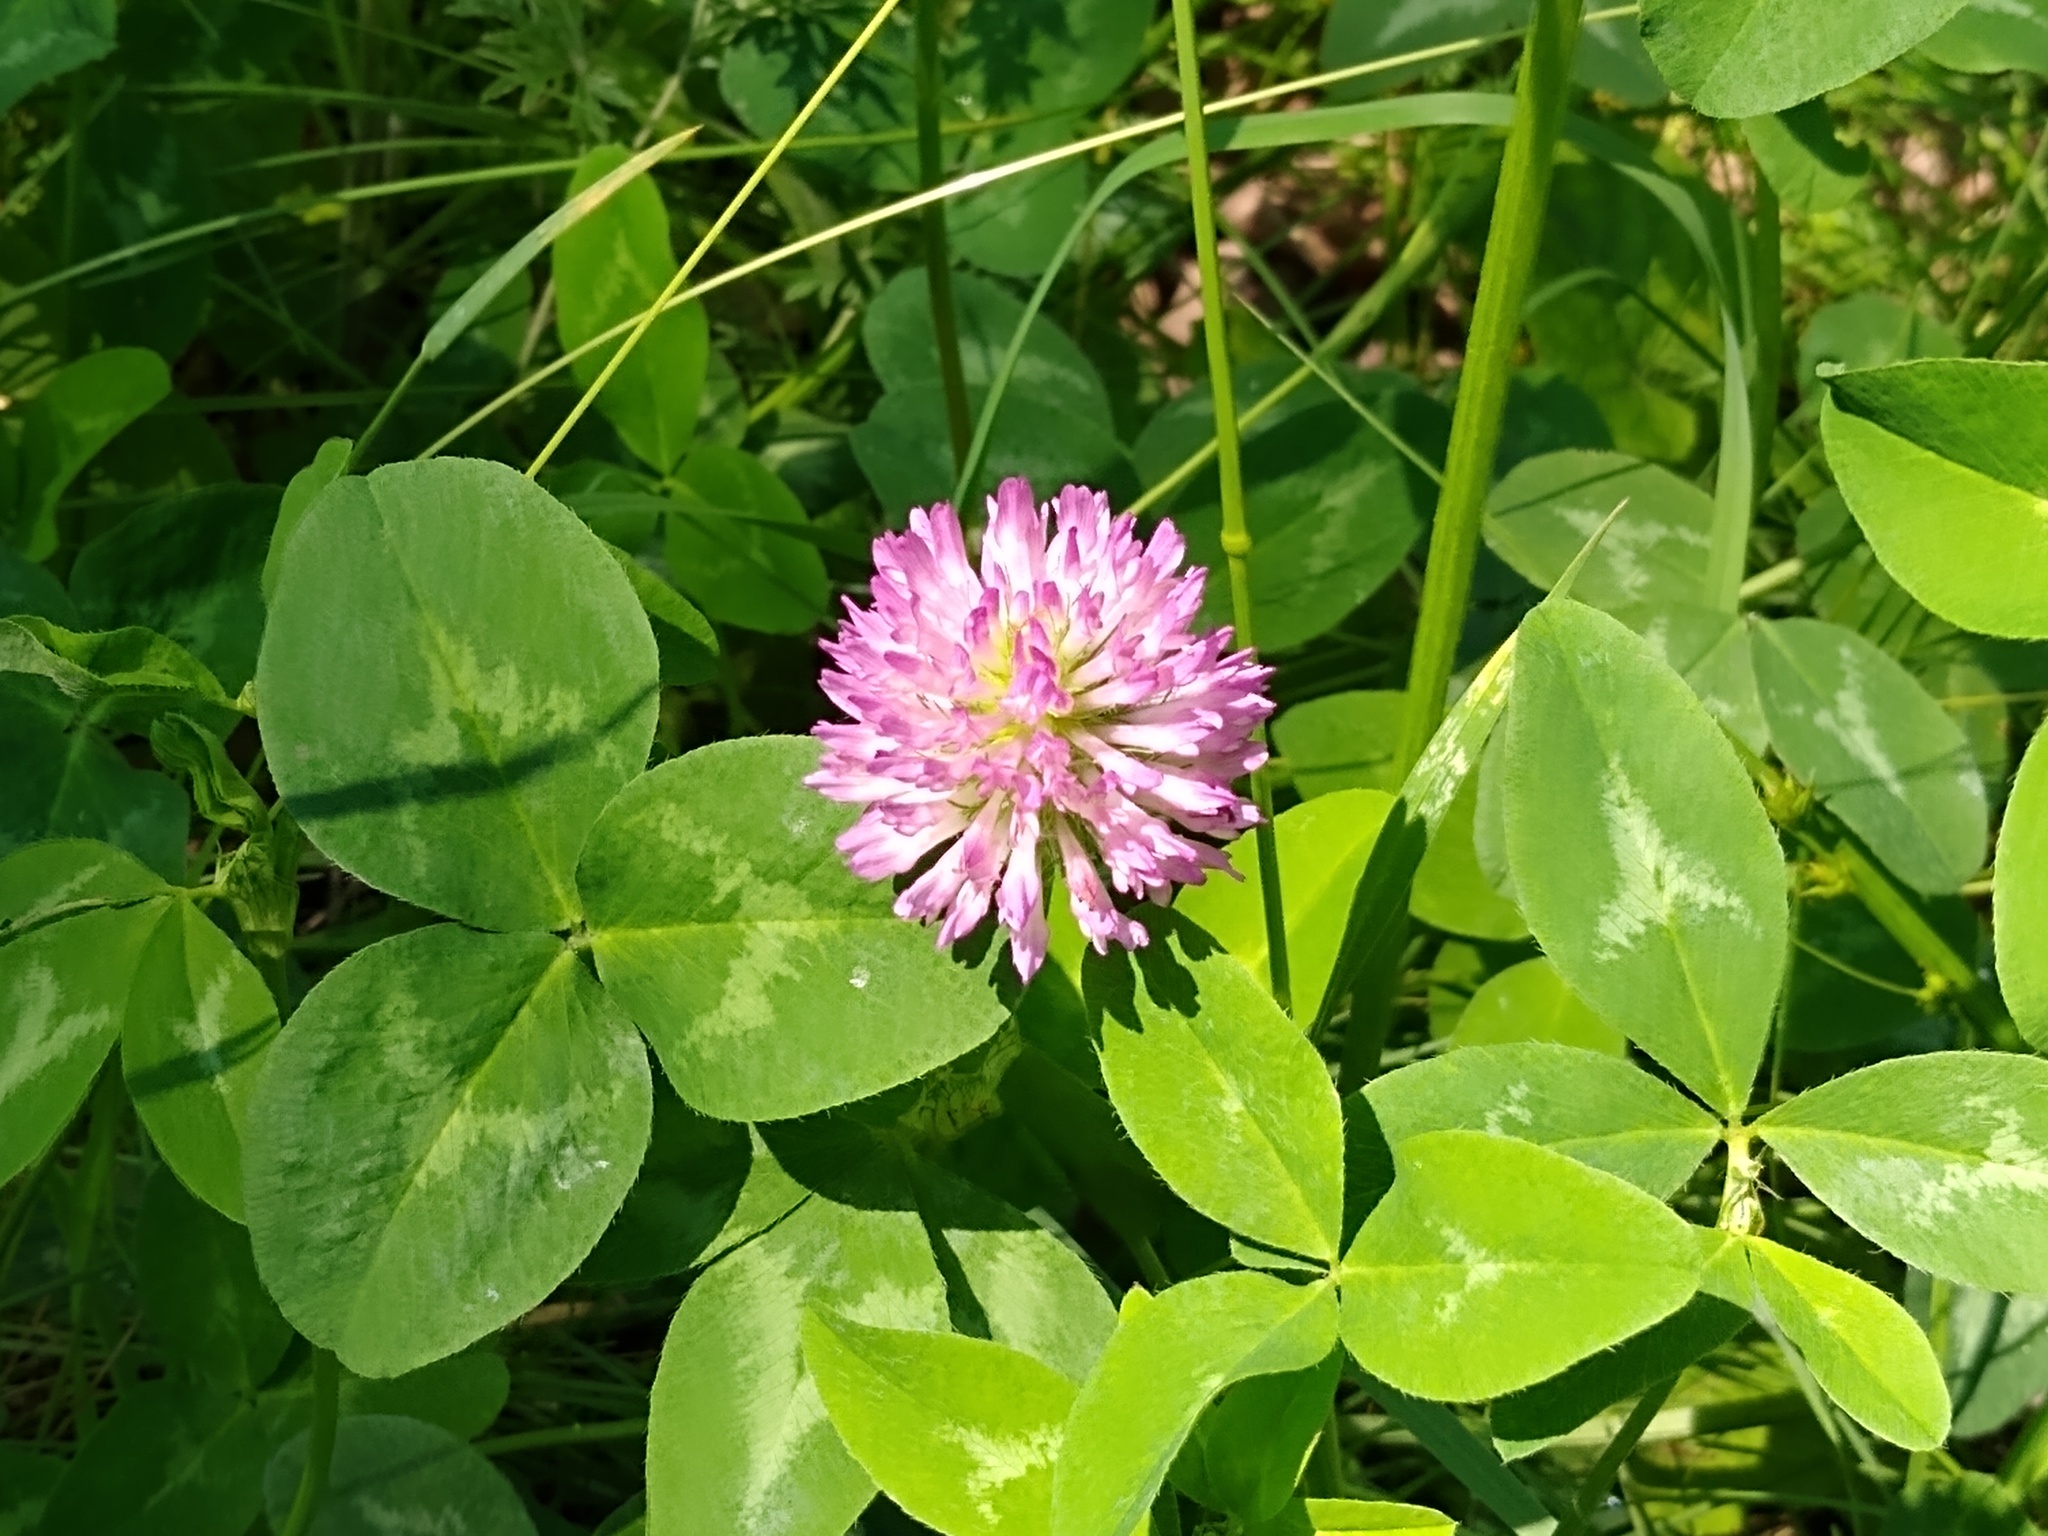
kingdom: Plantae
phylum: Tracheophyta
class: Magnoliopsida
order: Fabales
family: Fabaceae
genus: Trifolium
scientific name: Trifolium pratense
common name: Red clover
